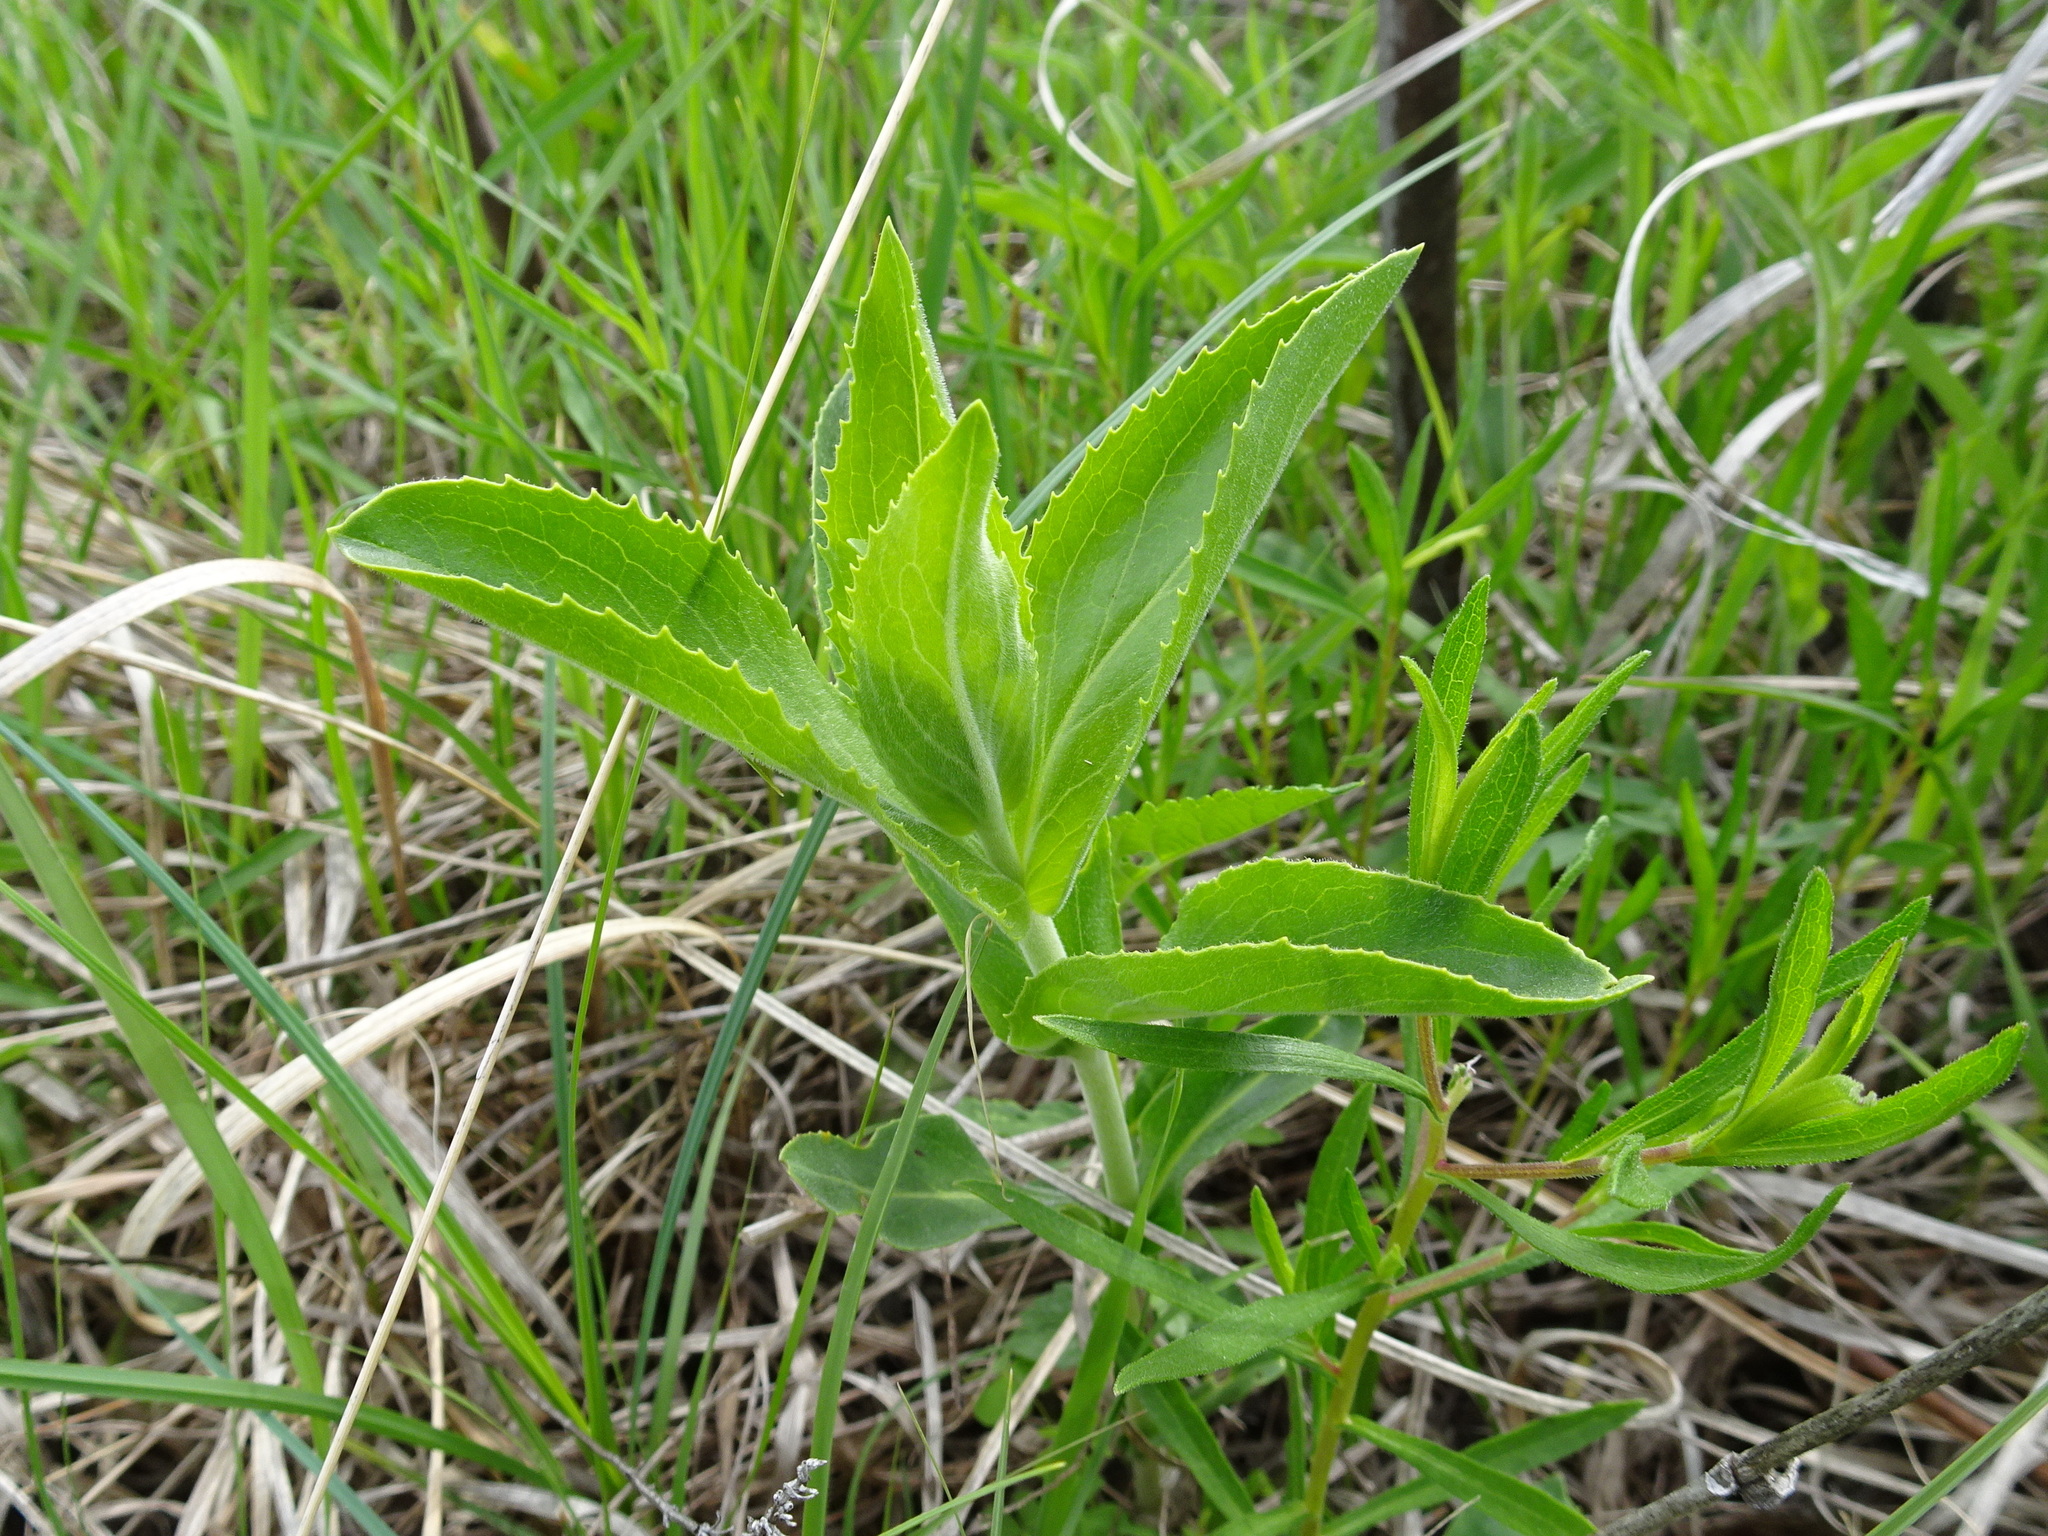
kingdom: Plantae
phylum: Tracheophyta
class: Magnoliopsida
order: Lamiales
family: Plantaginaceae
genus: Penstemon
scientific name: Penstemon cobaea
